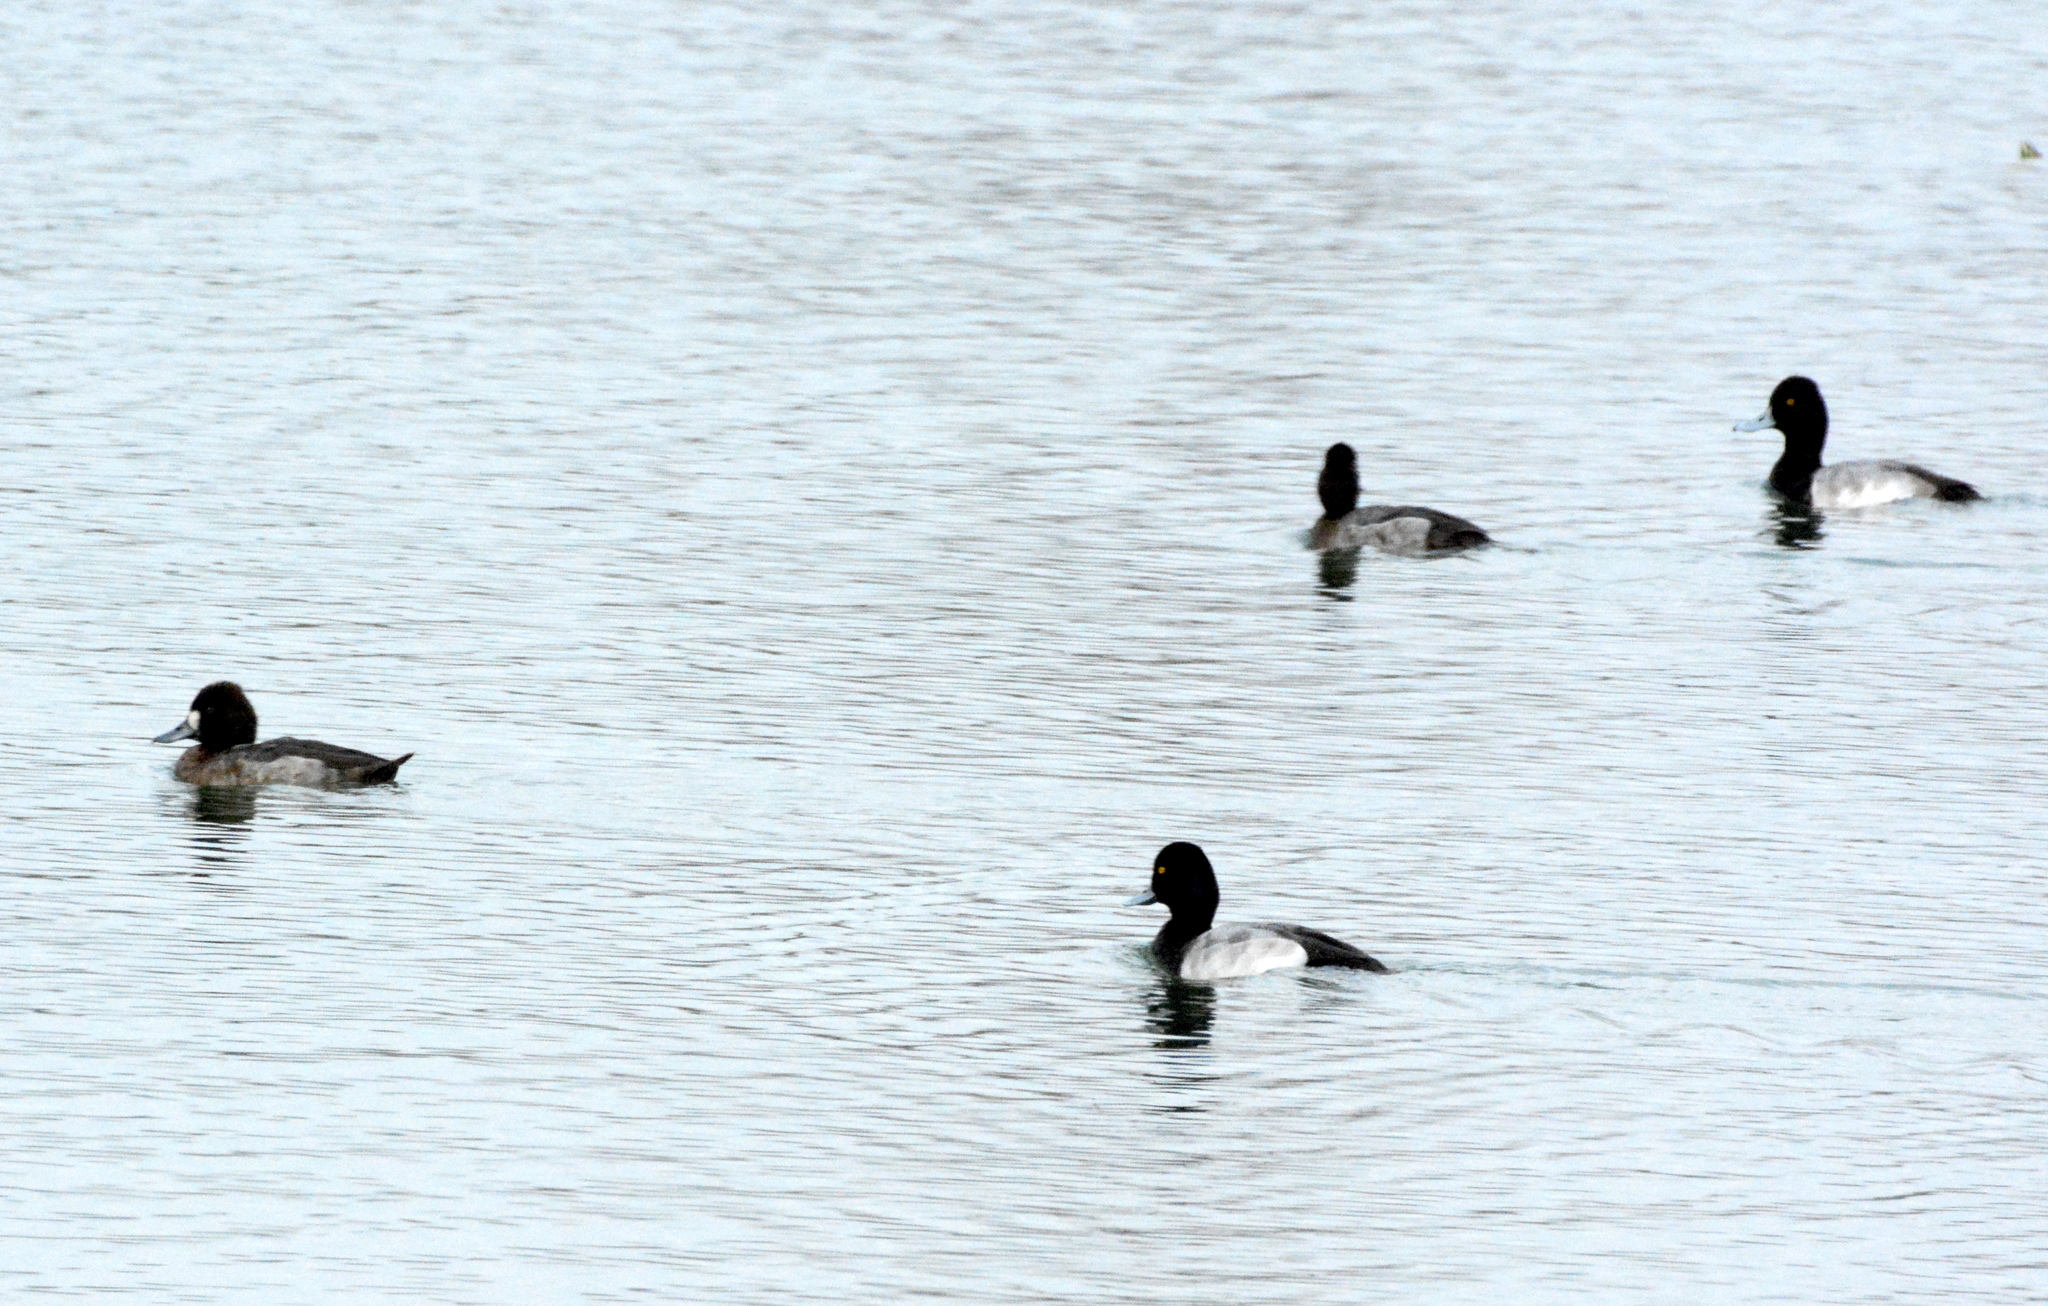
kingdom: Animalia
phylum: Chordata
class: Aves
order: Anseriformes
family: Anatidae
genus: Aythya
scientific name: Aythya affinis
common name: Lesser scaup
